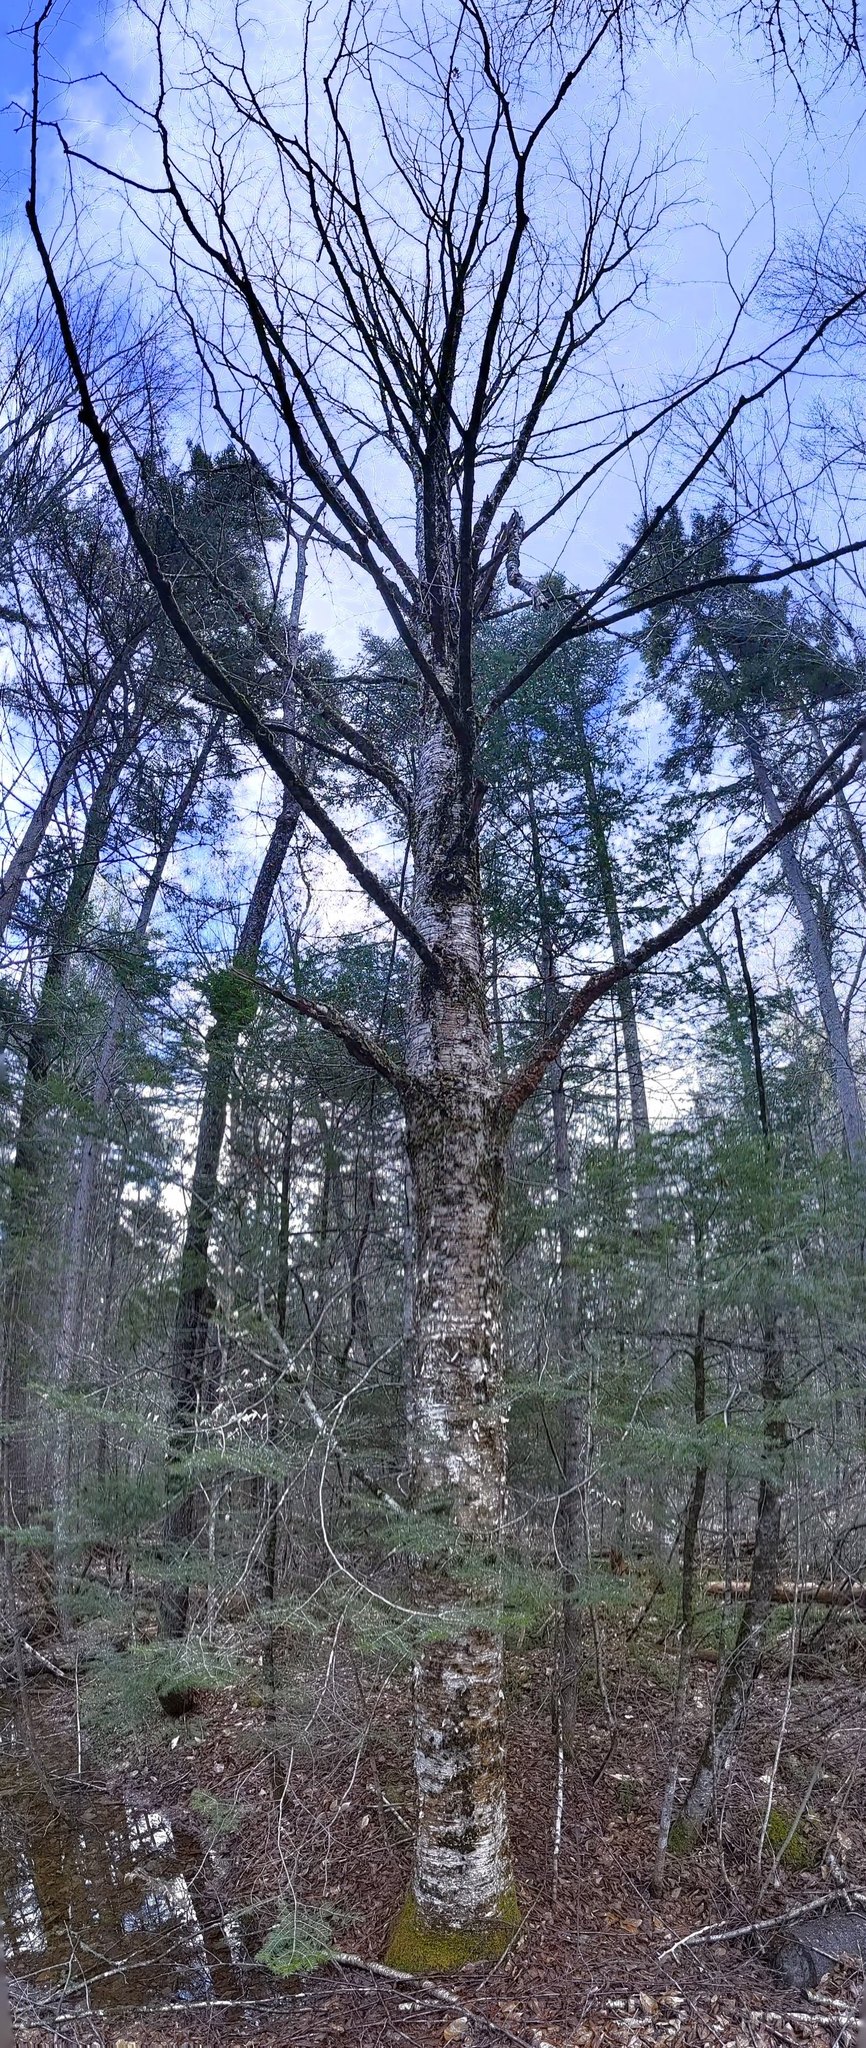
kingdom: Plantae
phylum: Tracheophyta
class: Magnoliopsida
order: Fagales
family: Betulaceae
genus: Betula
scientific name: Betula alleghaniensis
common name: Yellow birch
